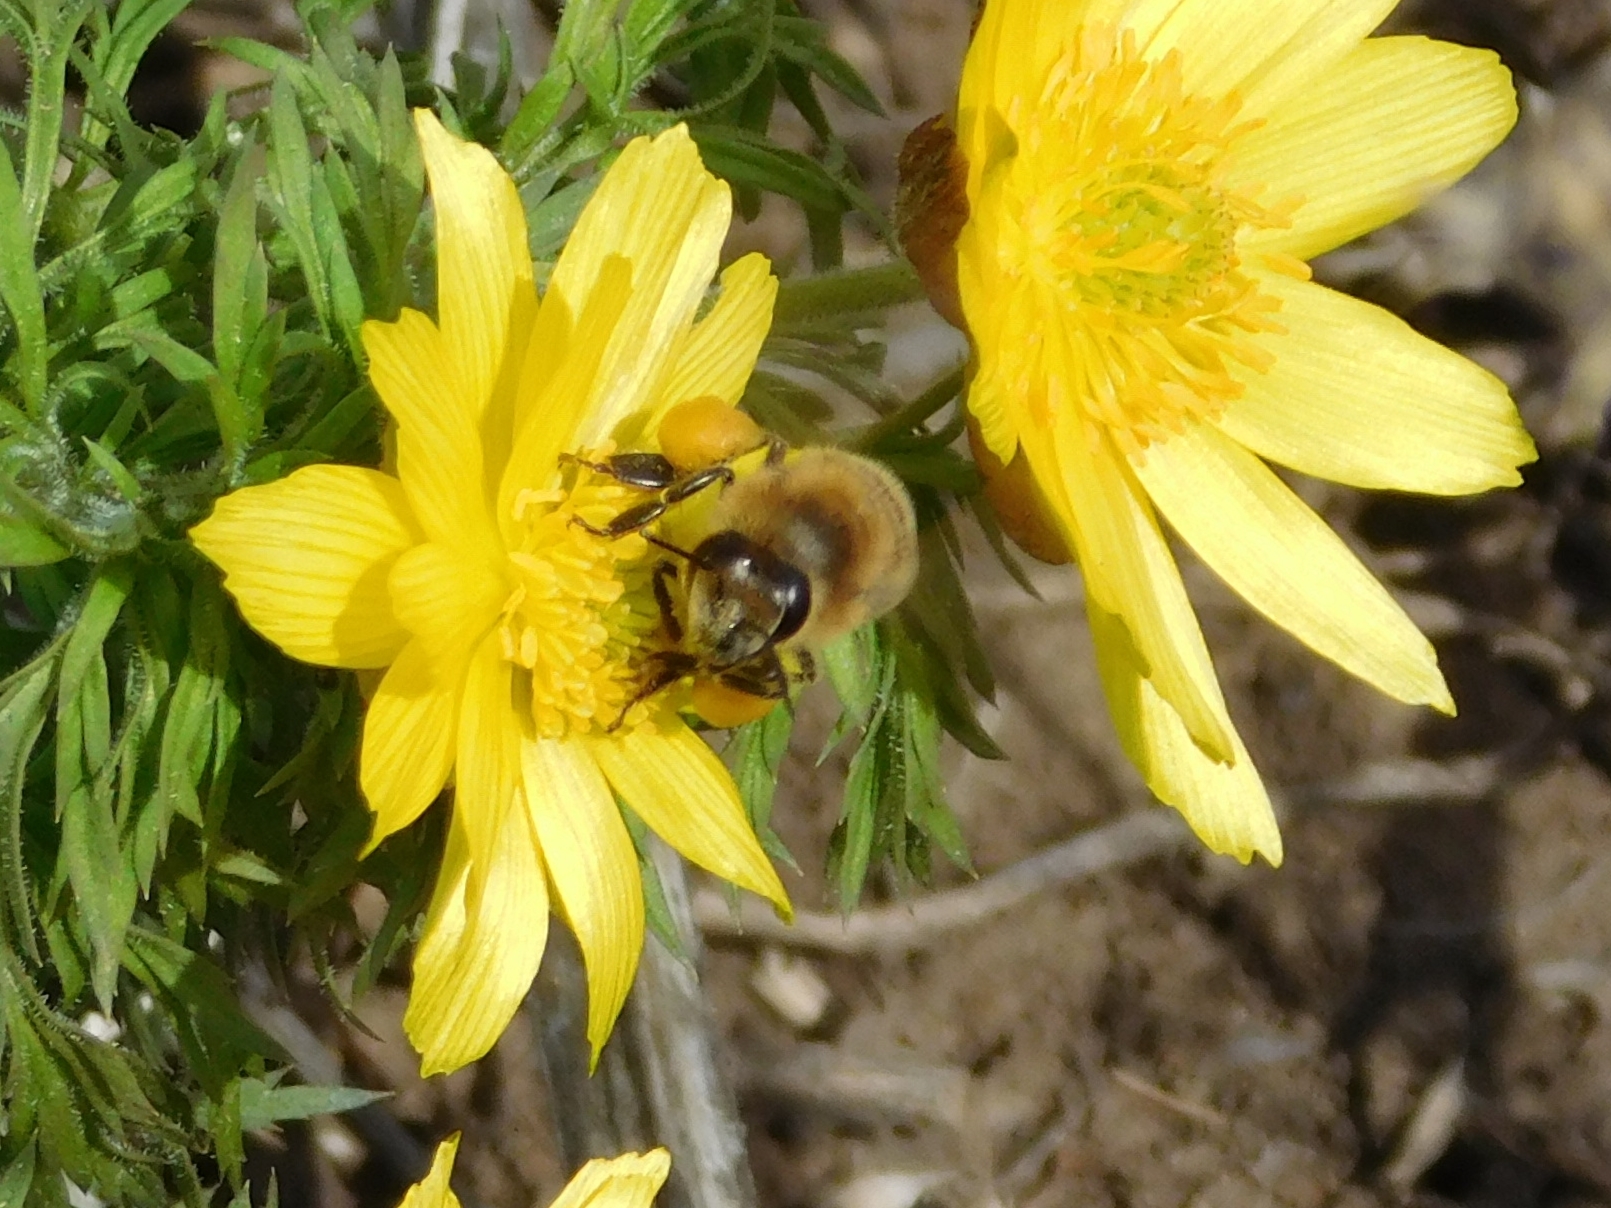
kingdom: Animalia
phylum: Arthropoda
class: Insecta
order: Hymenoptera
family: Apidae
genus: Apis
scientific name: Apis mellifera
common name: Honey bee
